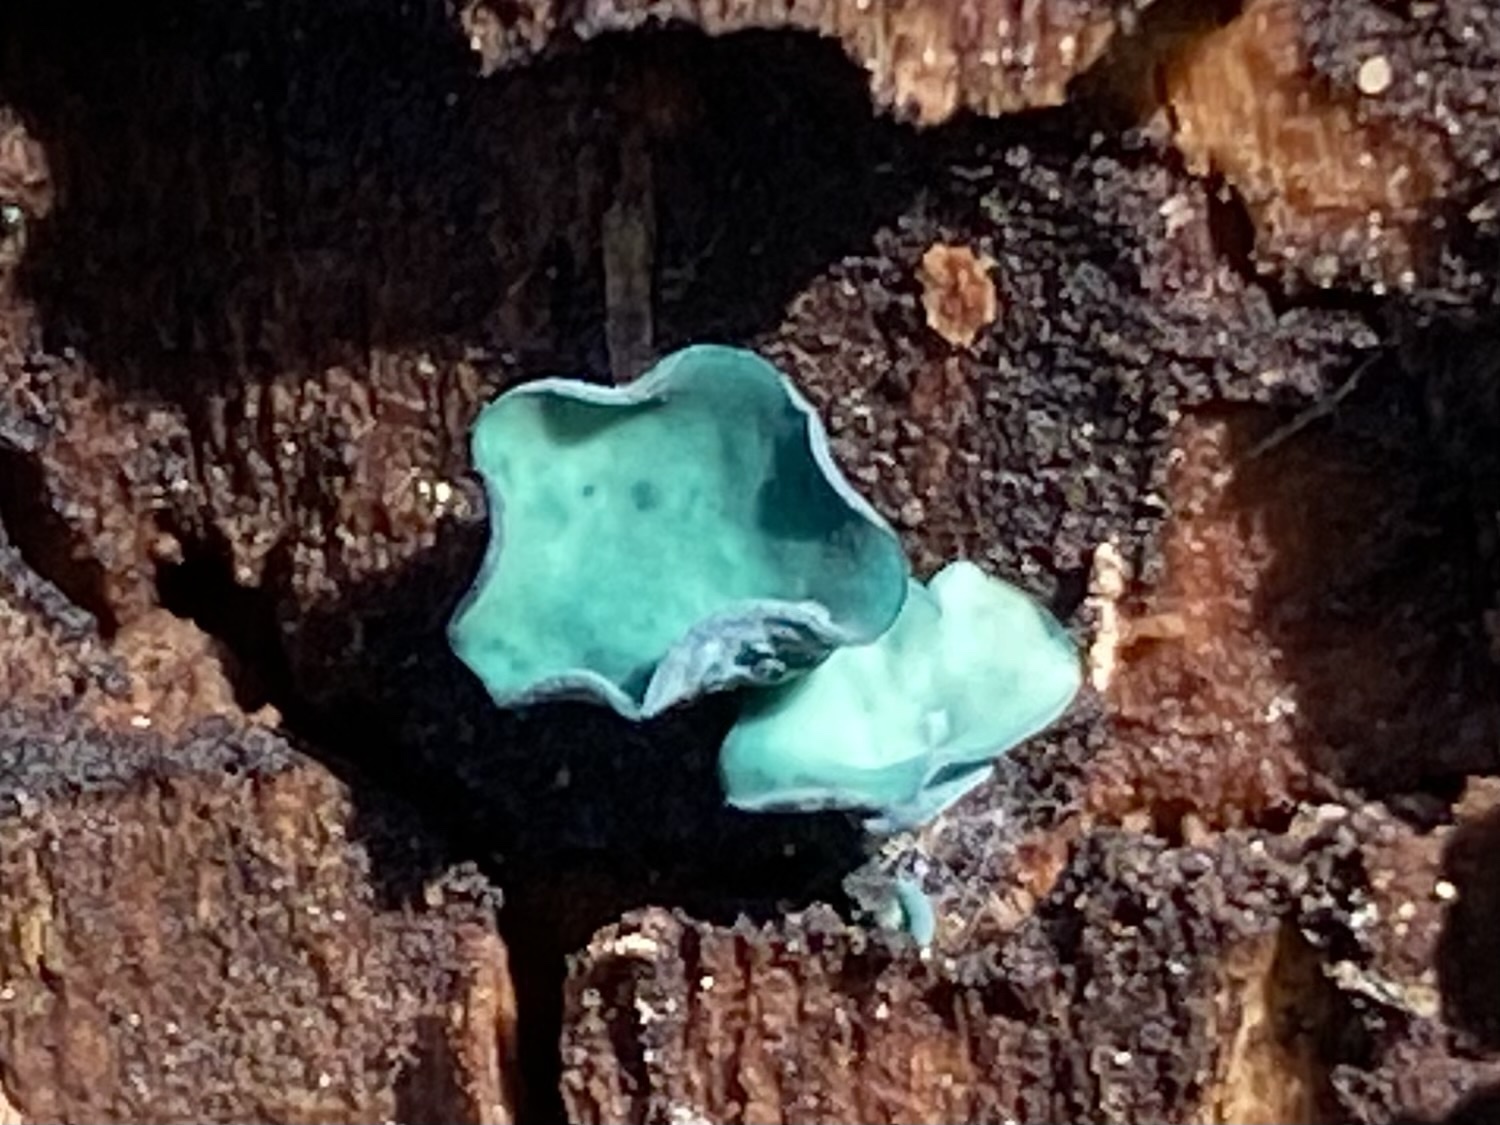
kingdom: Fungi
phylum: Ascomycota
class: Leotiomycetes
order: Helotiales
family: Chlorociboriaceae
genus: Chlorociboria
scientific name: Chlorociboria aeruginascens
